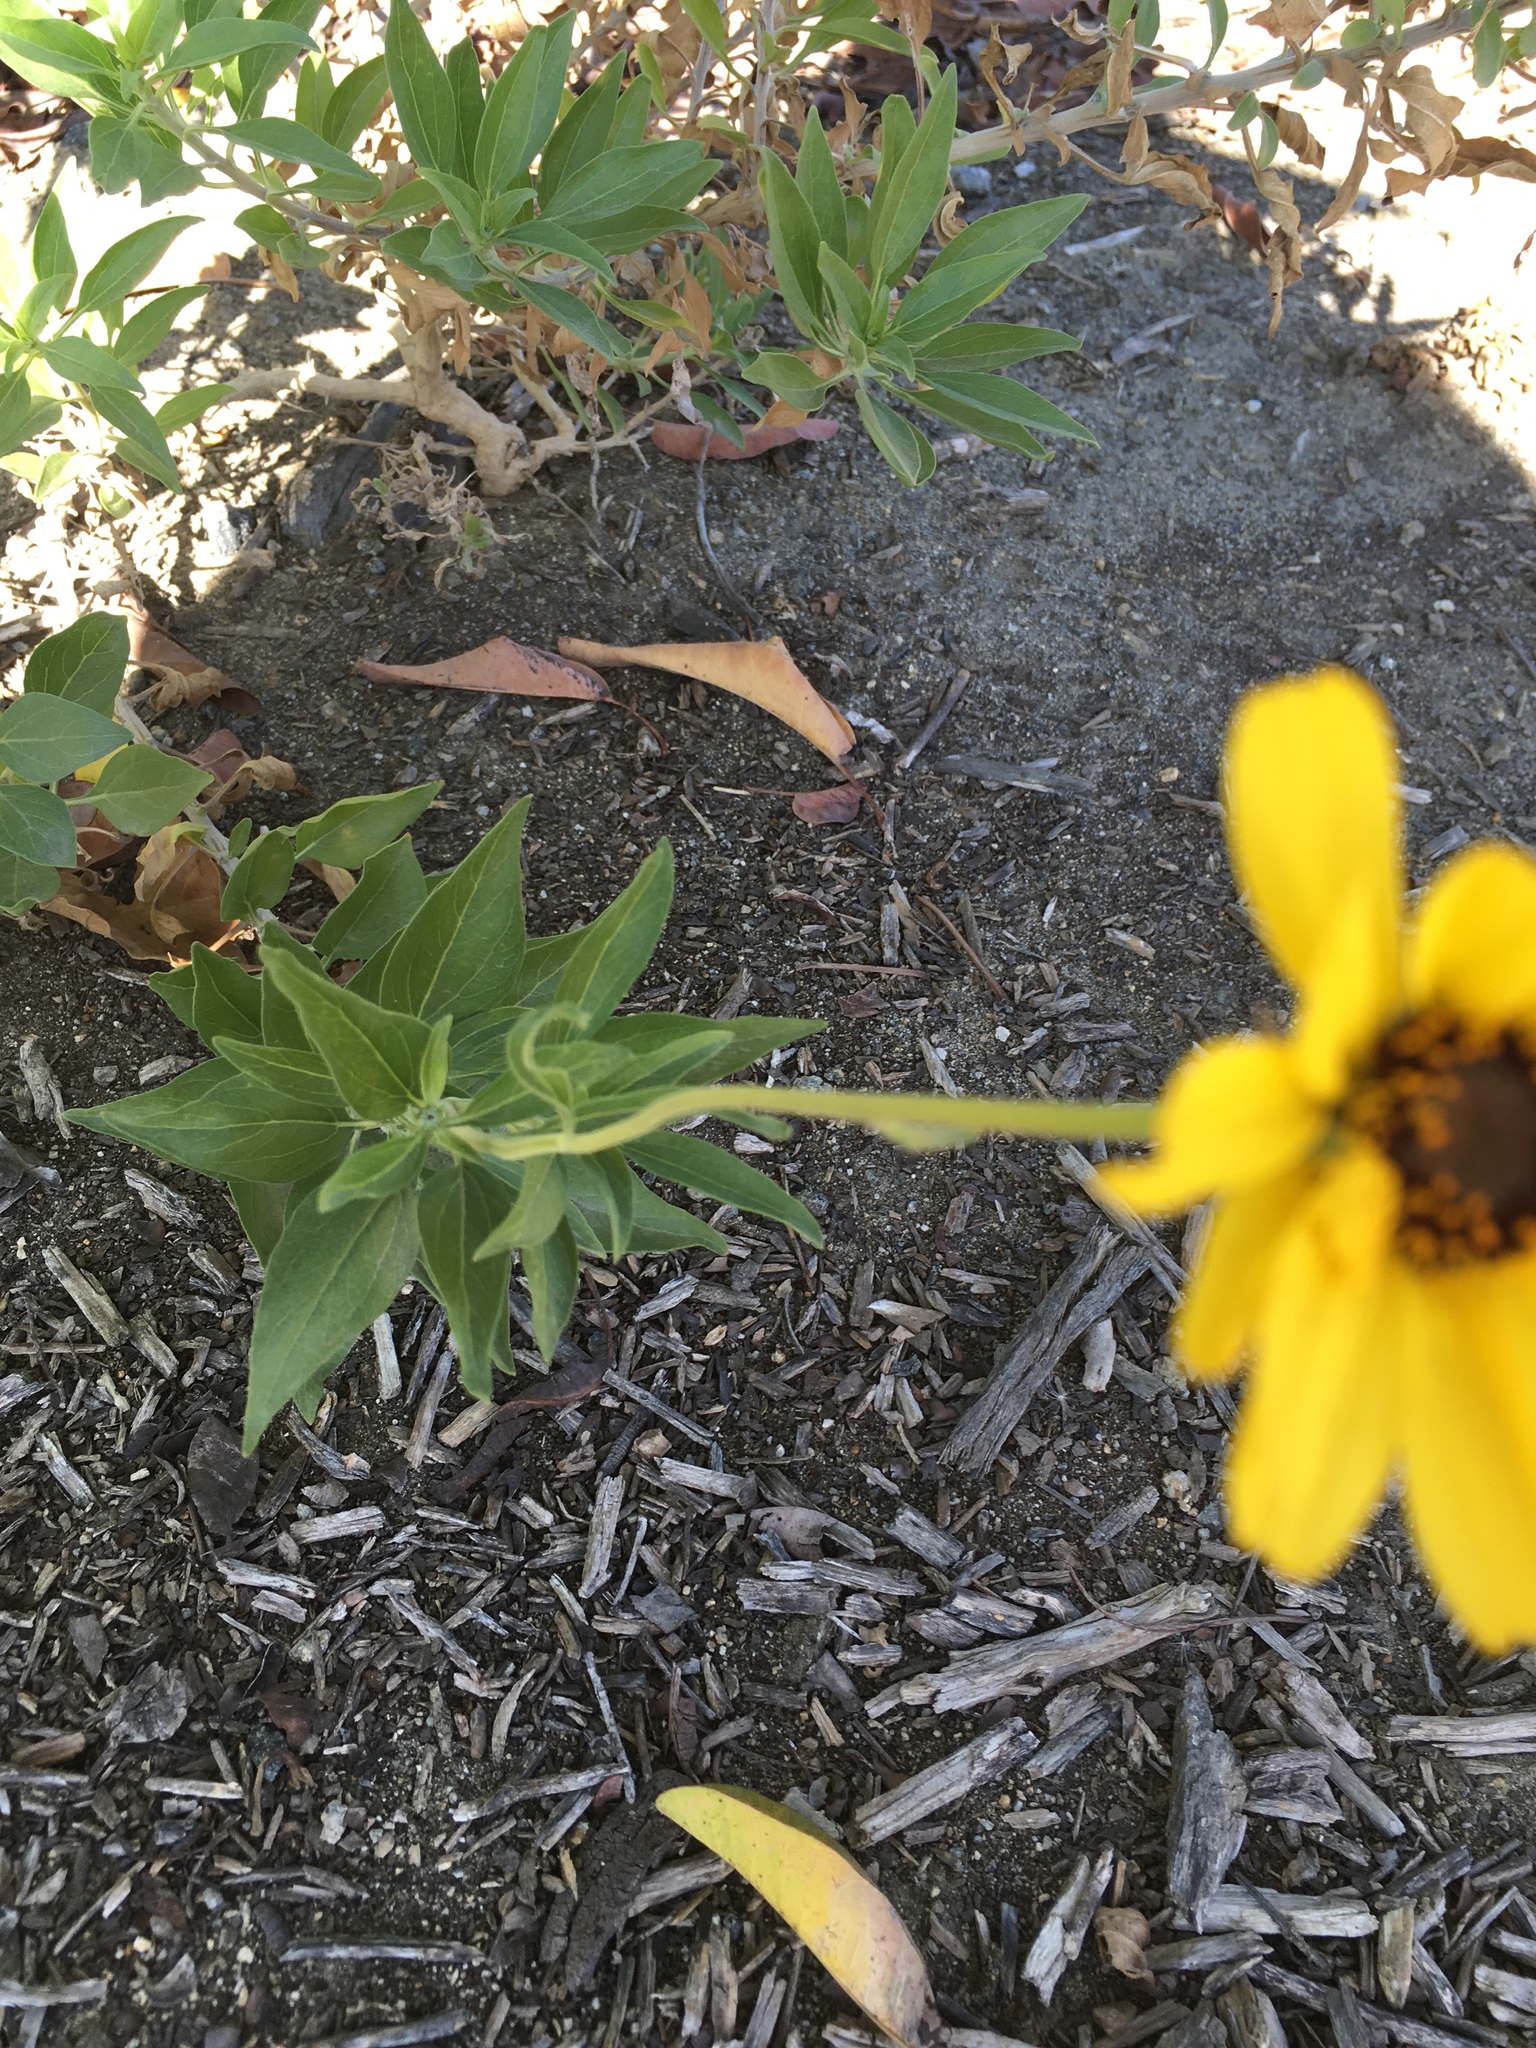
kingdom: Plantae
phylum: Tracheophyta
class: Magnoliopsida
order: Asterales
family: Asteraceae
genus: Encelia
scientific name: Encelia californica
